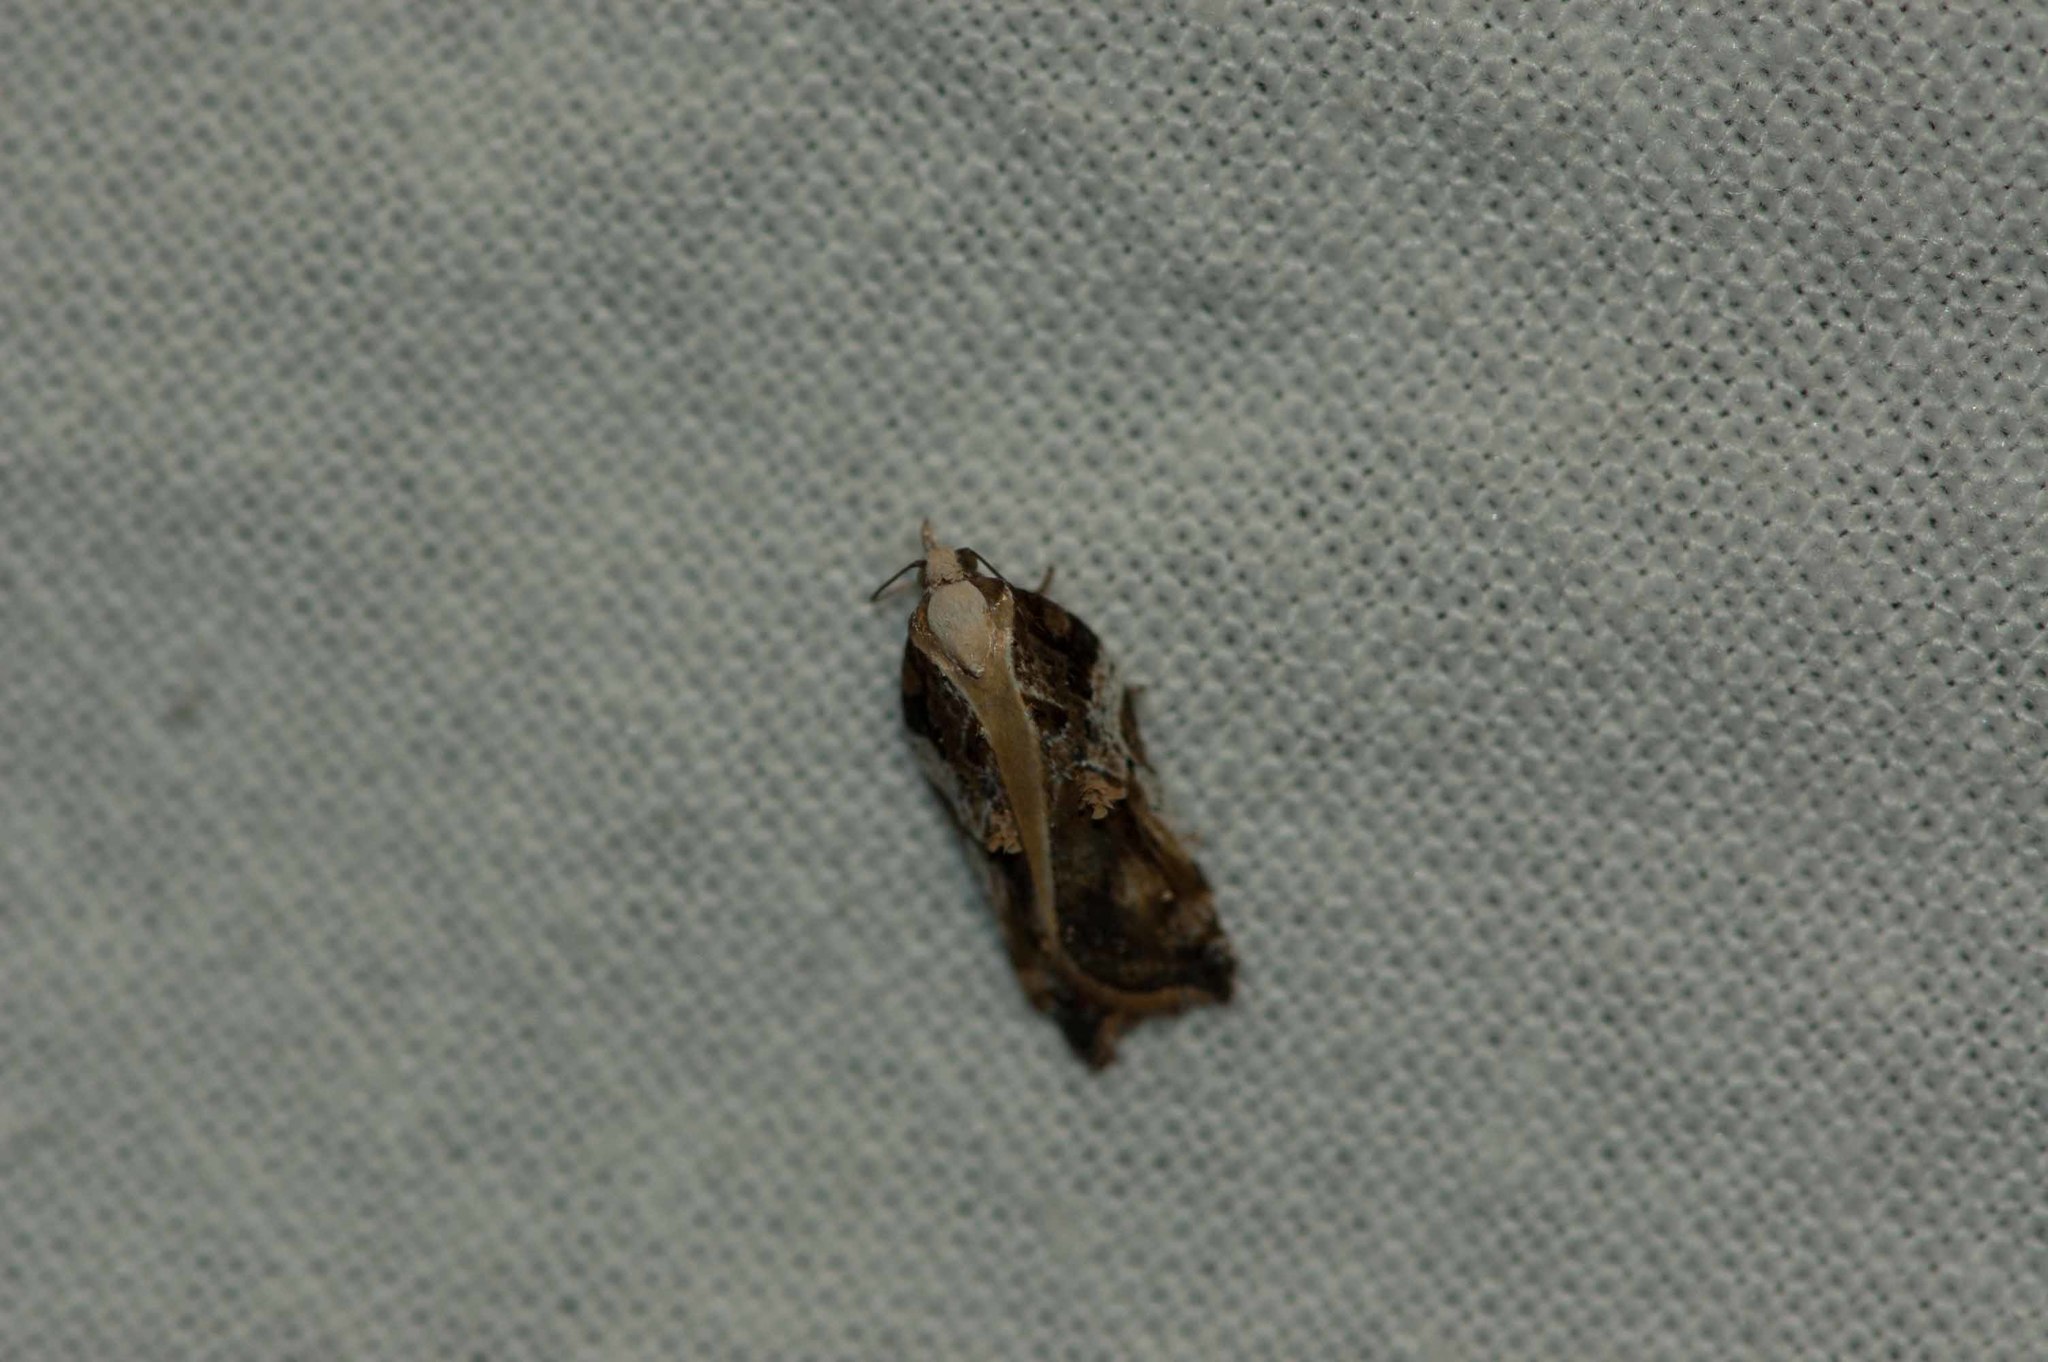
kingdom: Animalia
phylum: Arthropoda
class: Insecta
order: Lepidoptera
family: Tortricidae
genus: Acleris
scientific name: Acleris cristana
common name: Tufted button
